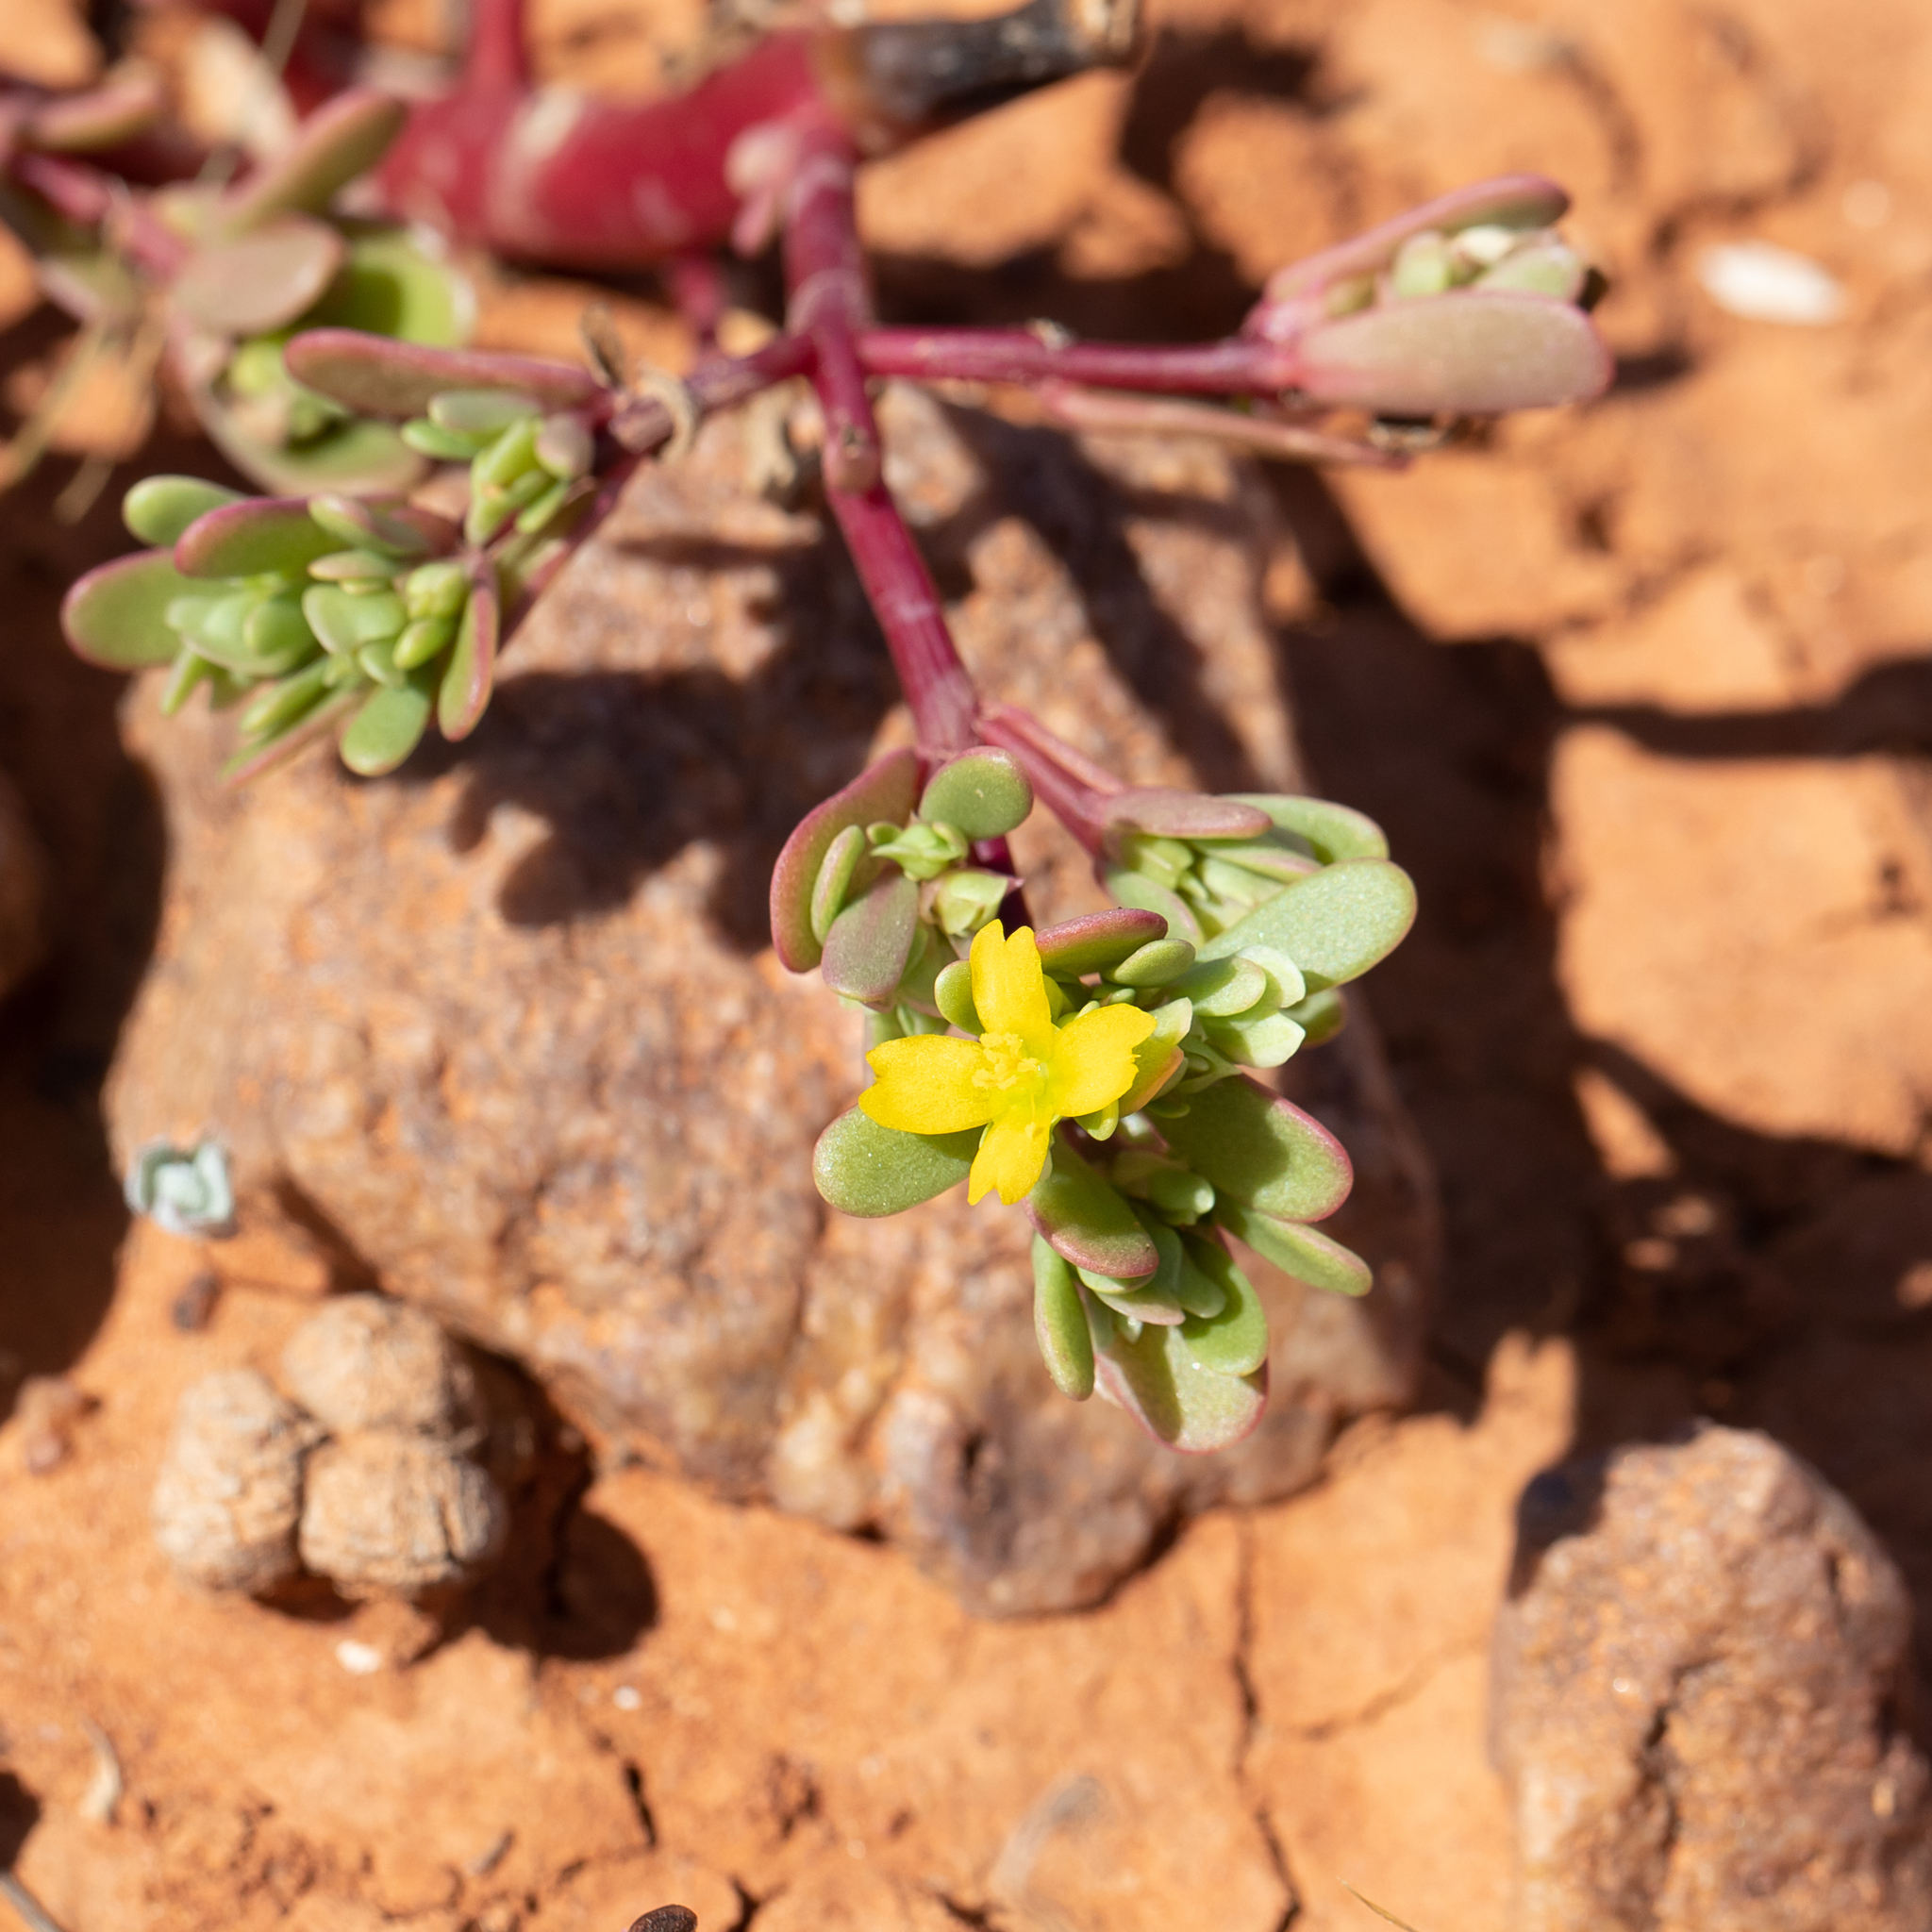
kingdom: Plantae
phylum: Tracheophyta
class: Magnoliopsida
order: Caryophyllales
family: Portulacaceae
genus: Portulaca
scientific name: Portulaca oleracea
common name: Common purslane
